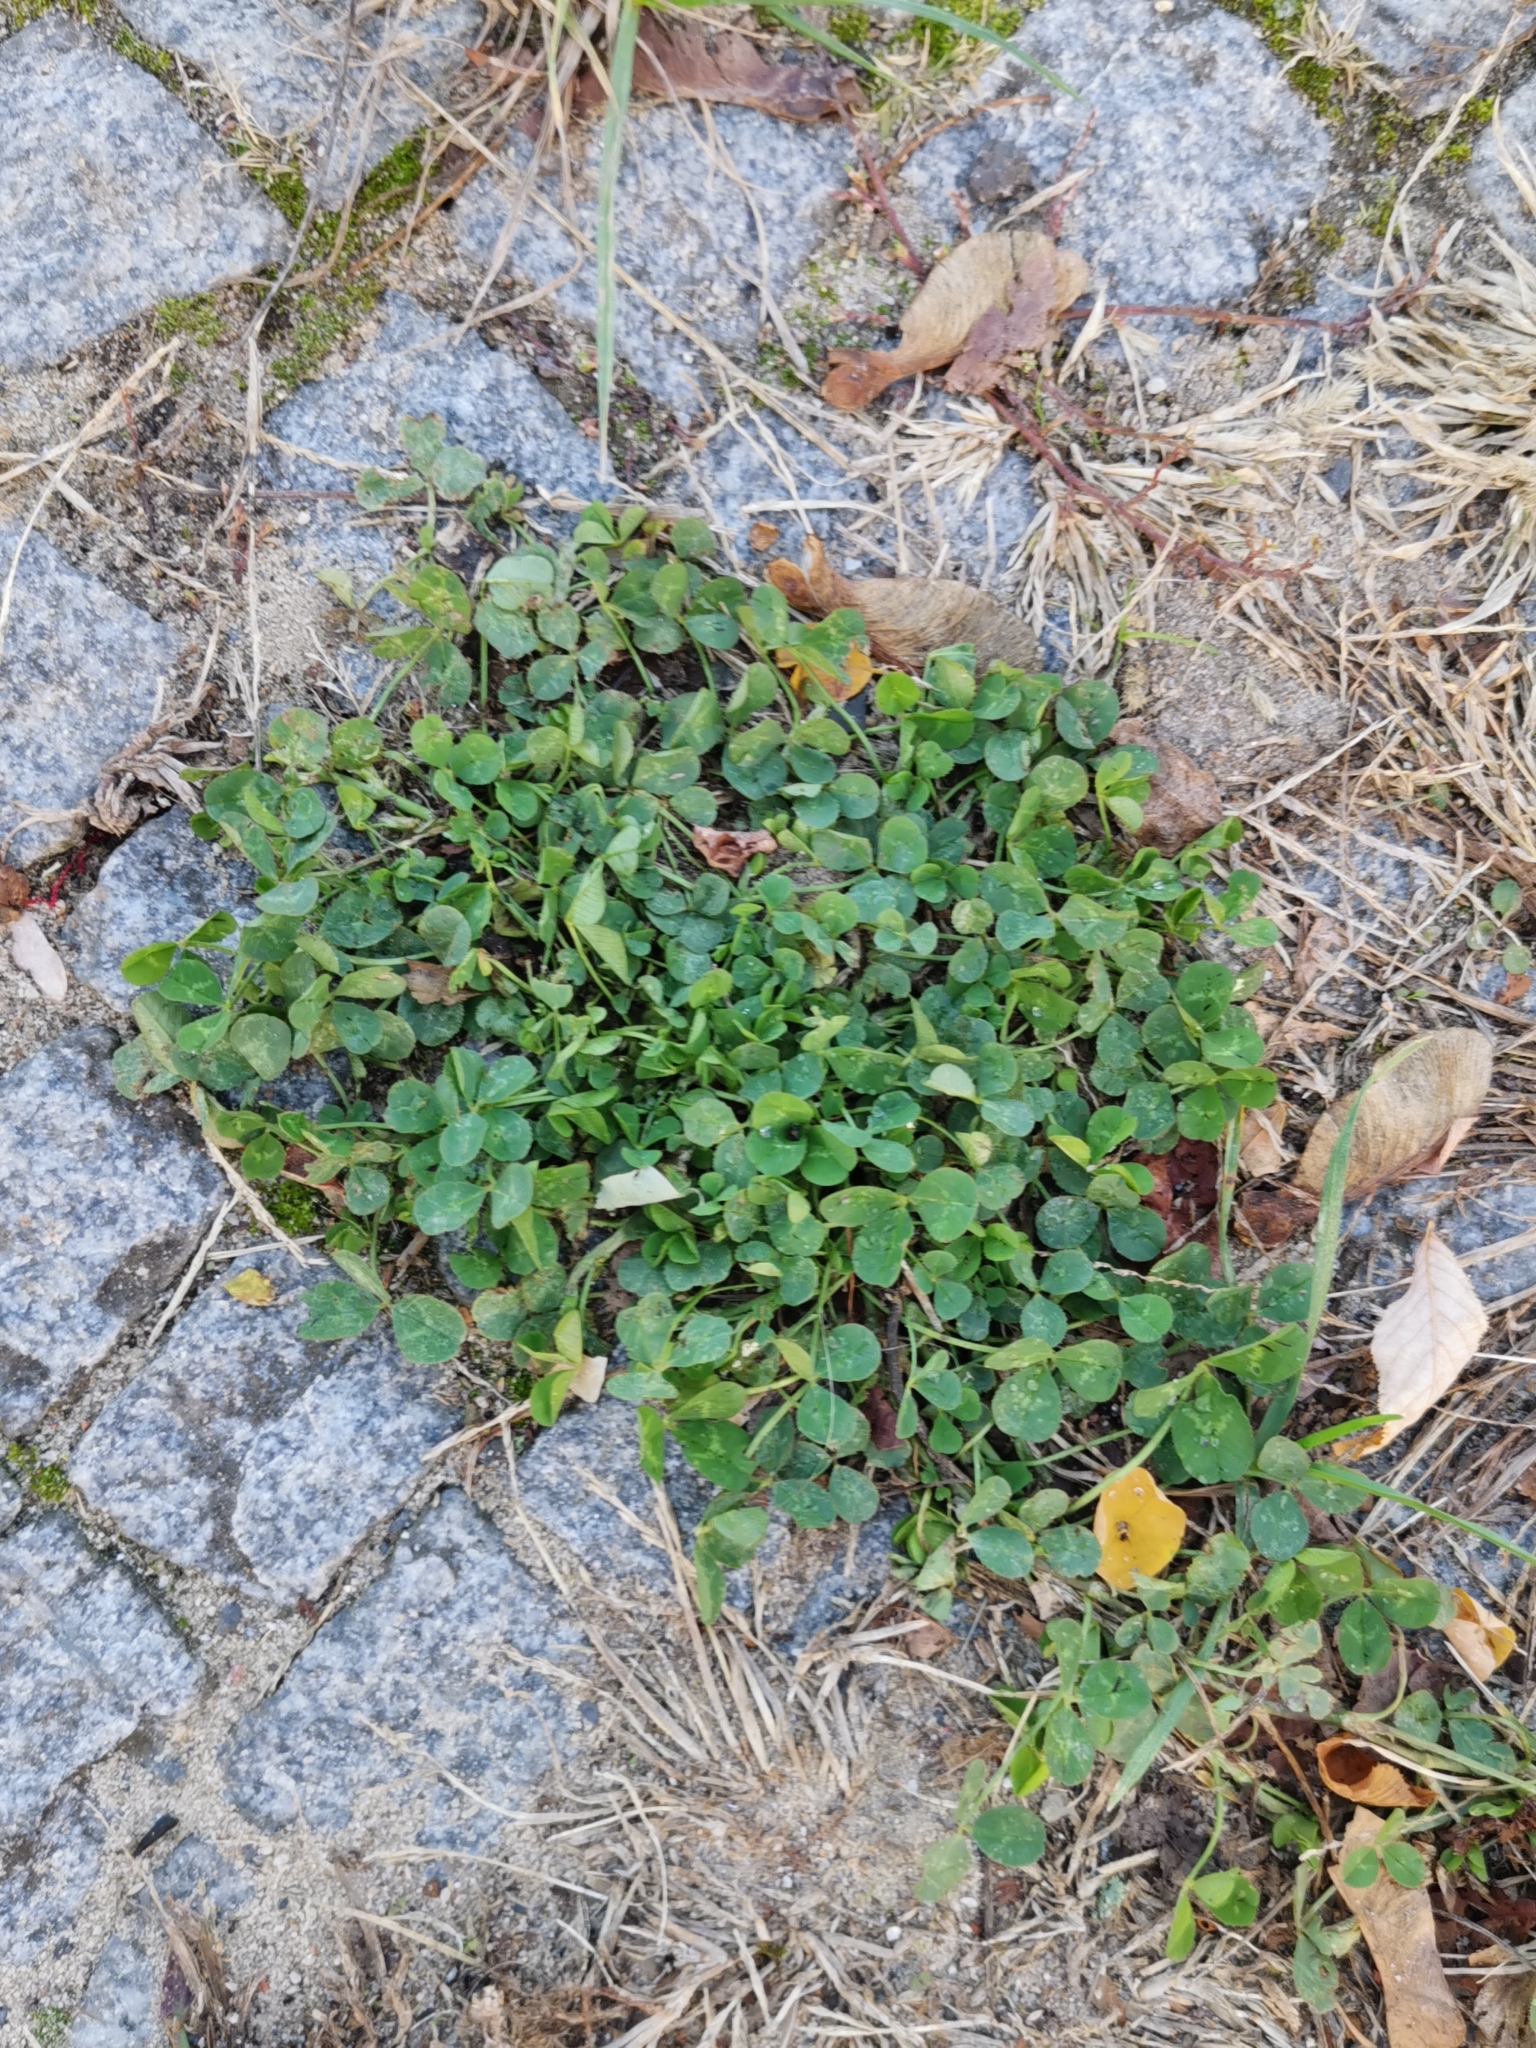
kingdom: Plantae
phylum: Tracheophyta
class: Magnoliopsida
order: Fabales
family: Fabaceae
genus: Trifolium
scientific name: Trifolium repens
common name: White clover
